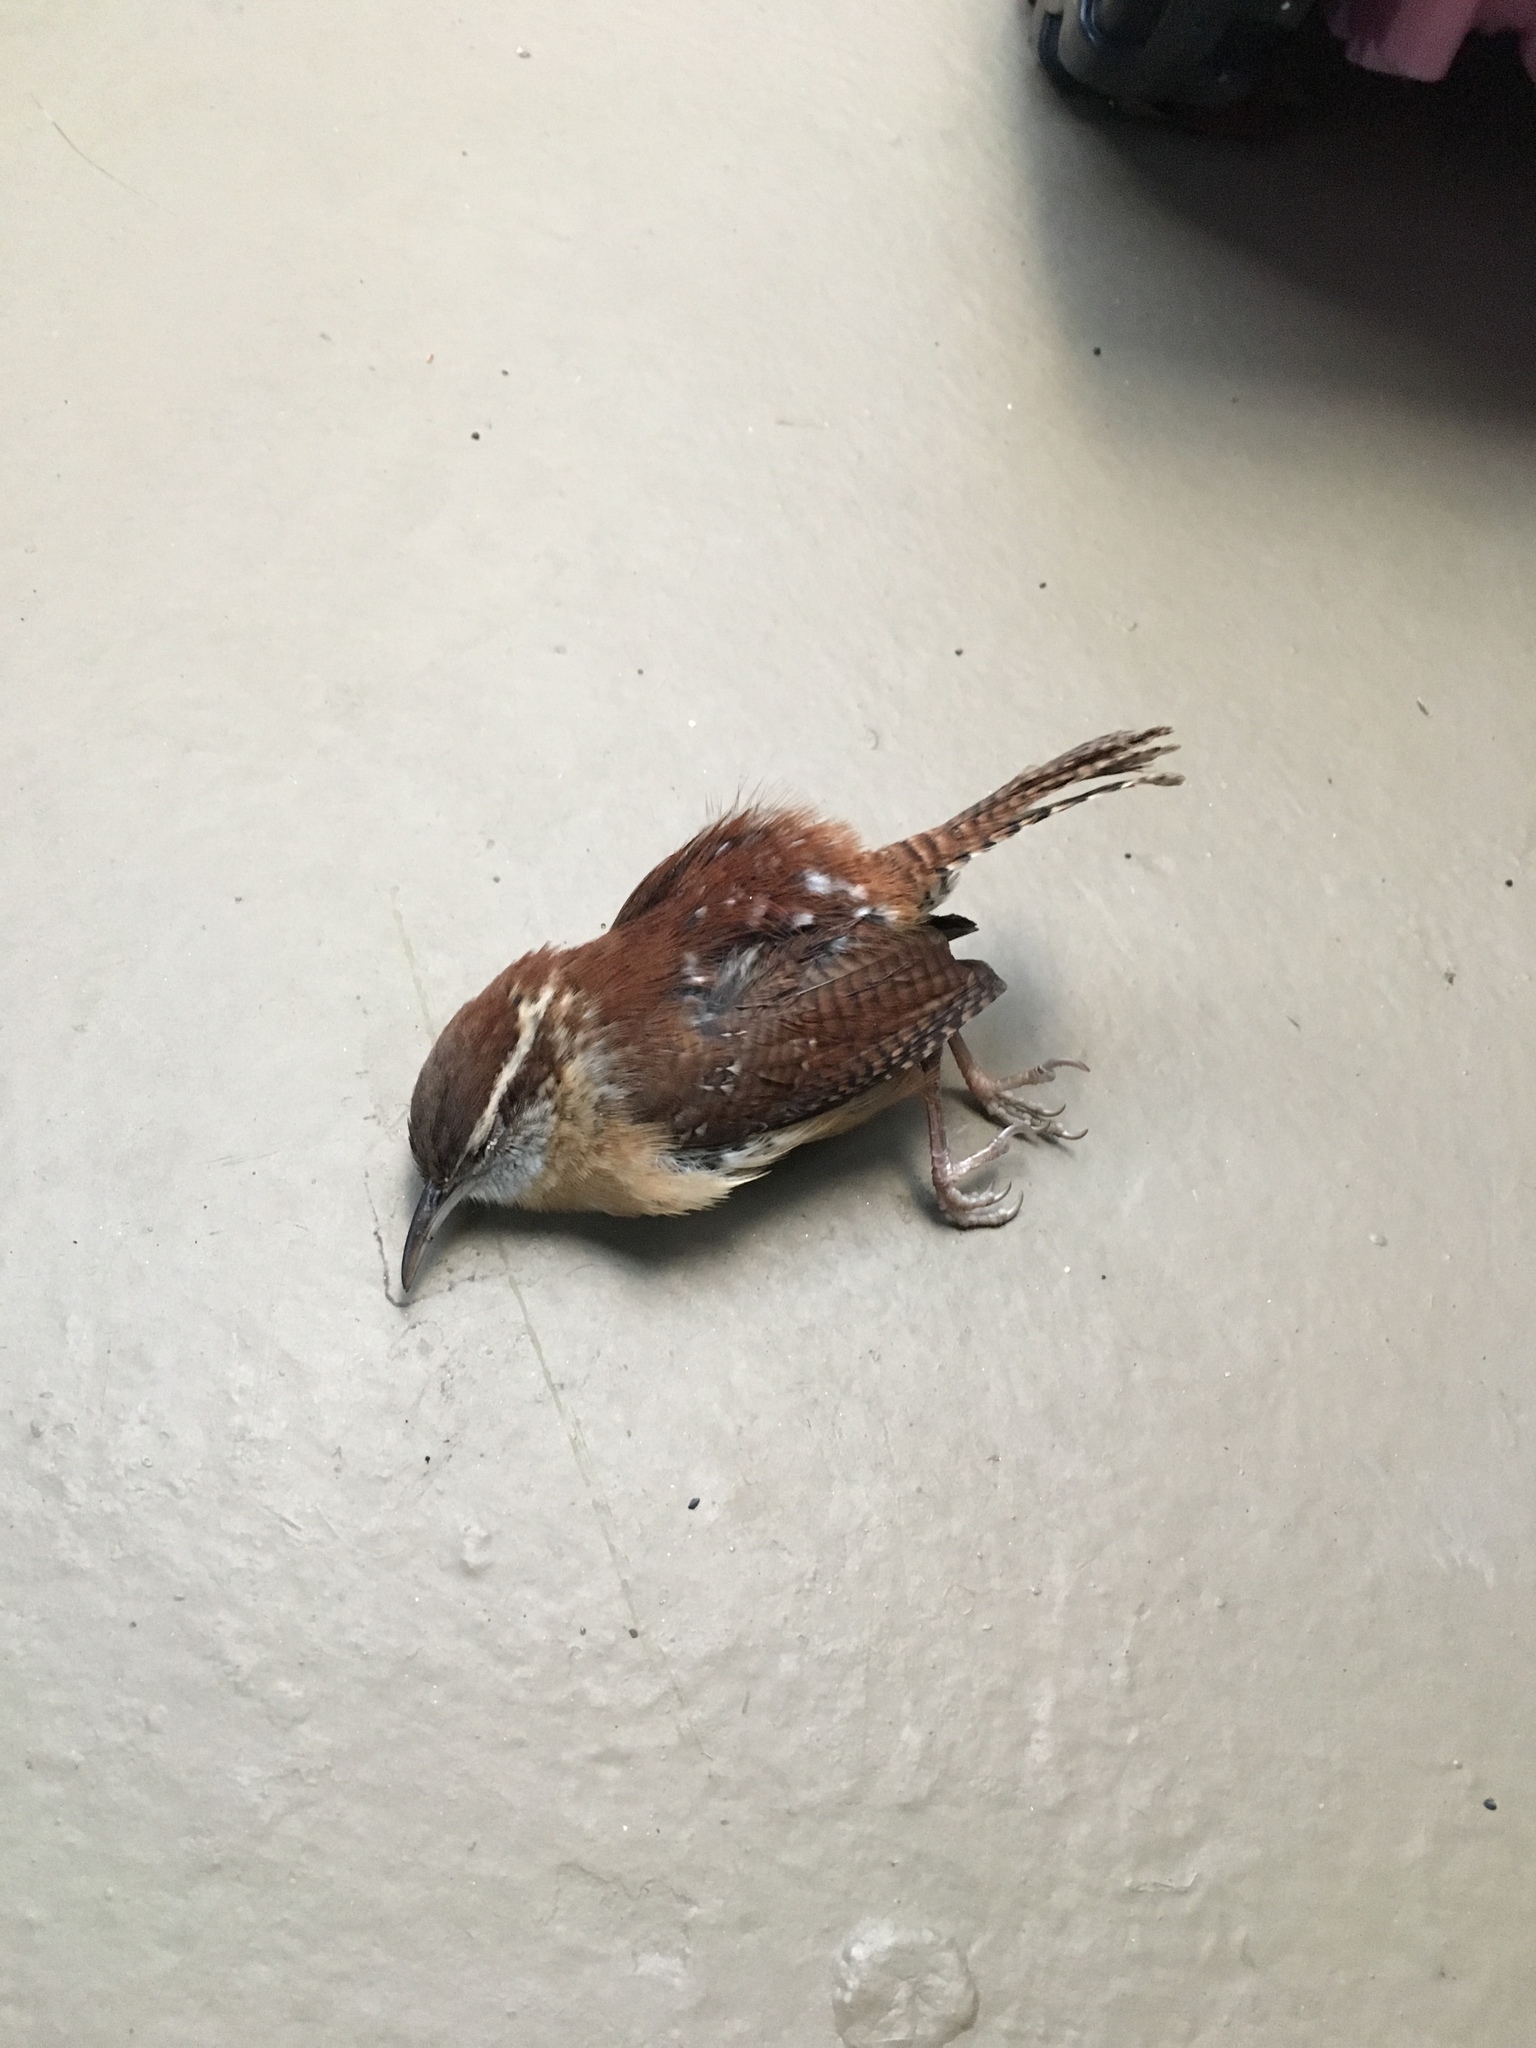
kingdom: Animalia
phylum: Chordata
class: Aves
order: Passeriformes
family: Troglodytidae
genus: Thryothorus
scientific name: Thryothorus ludovicianus
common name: Carolina wren
